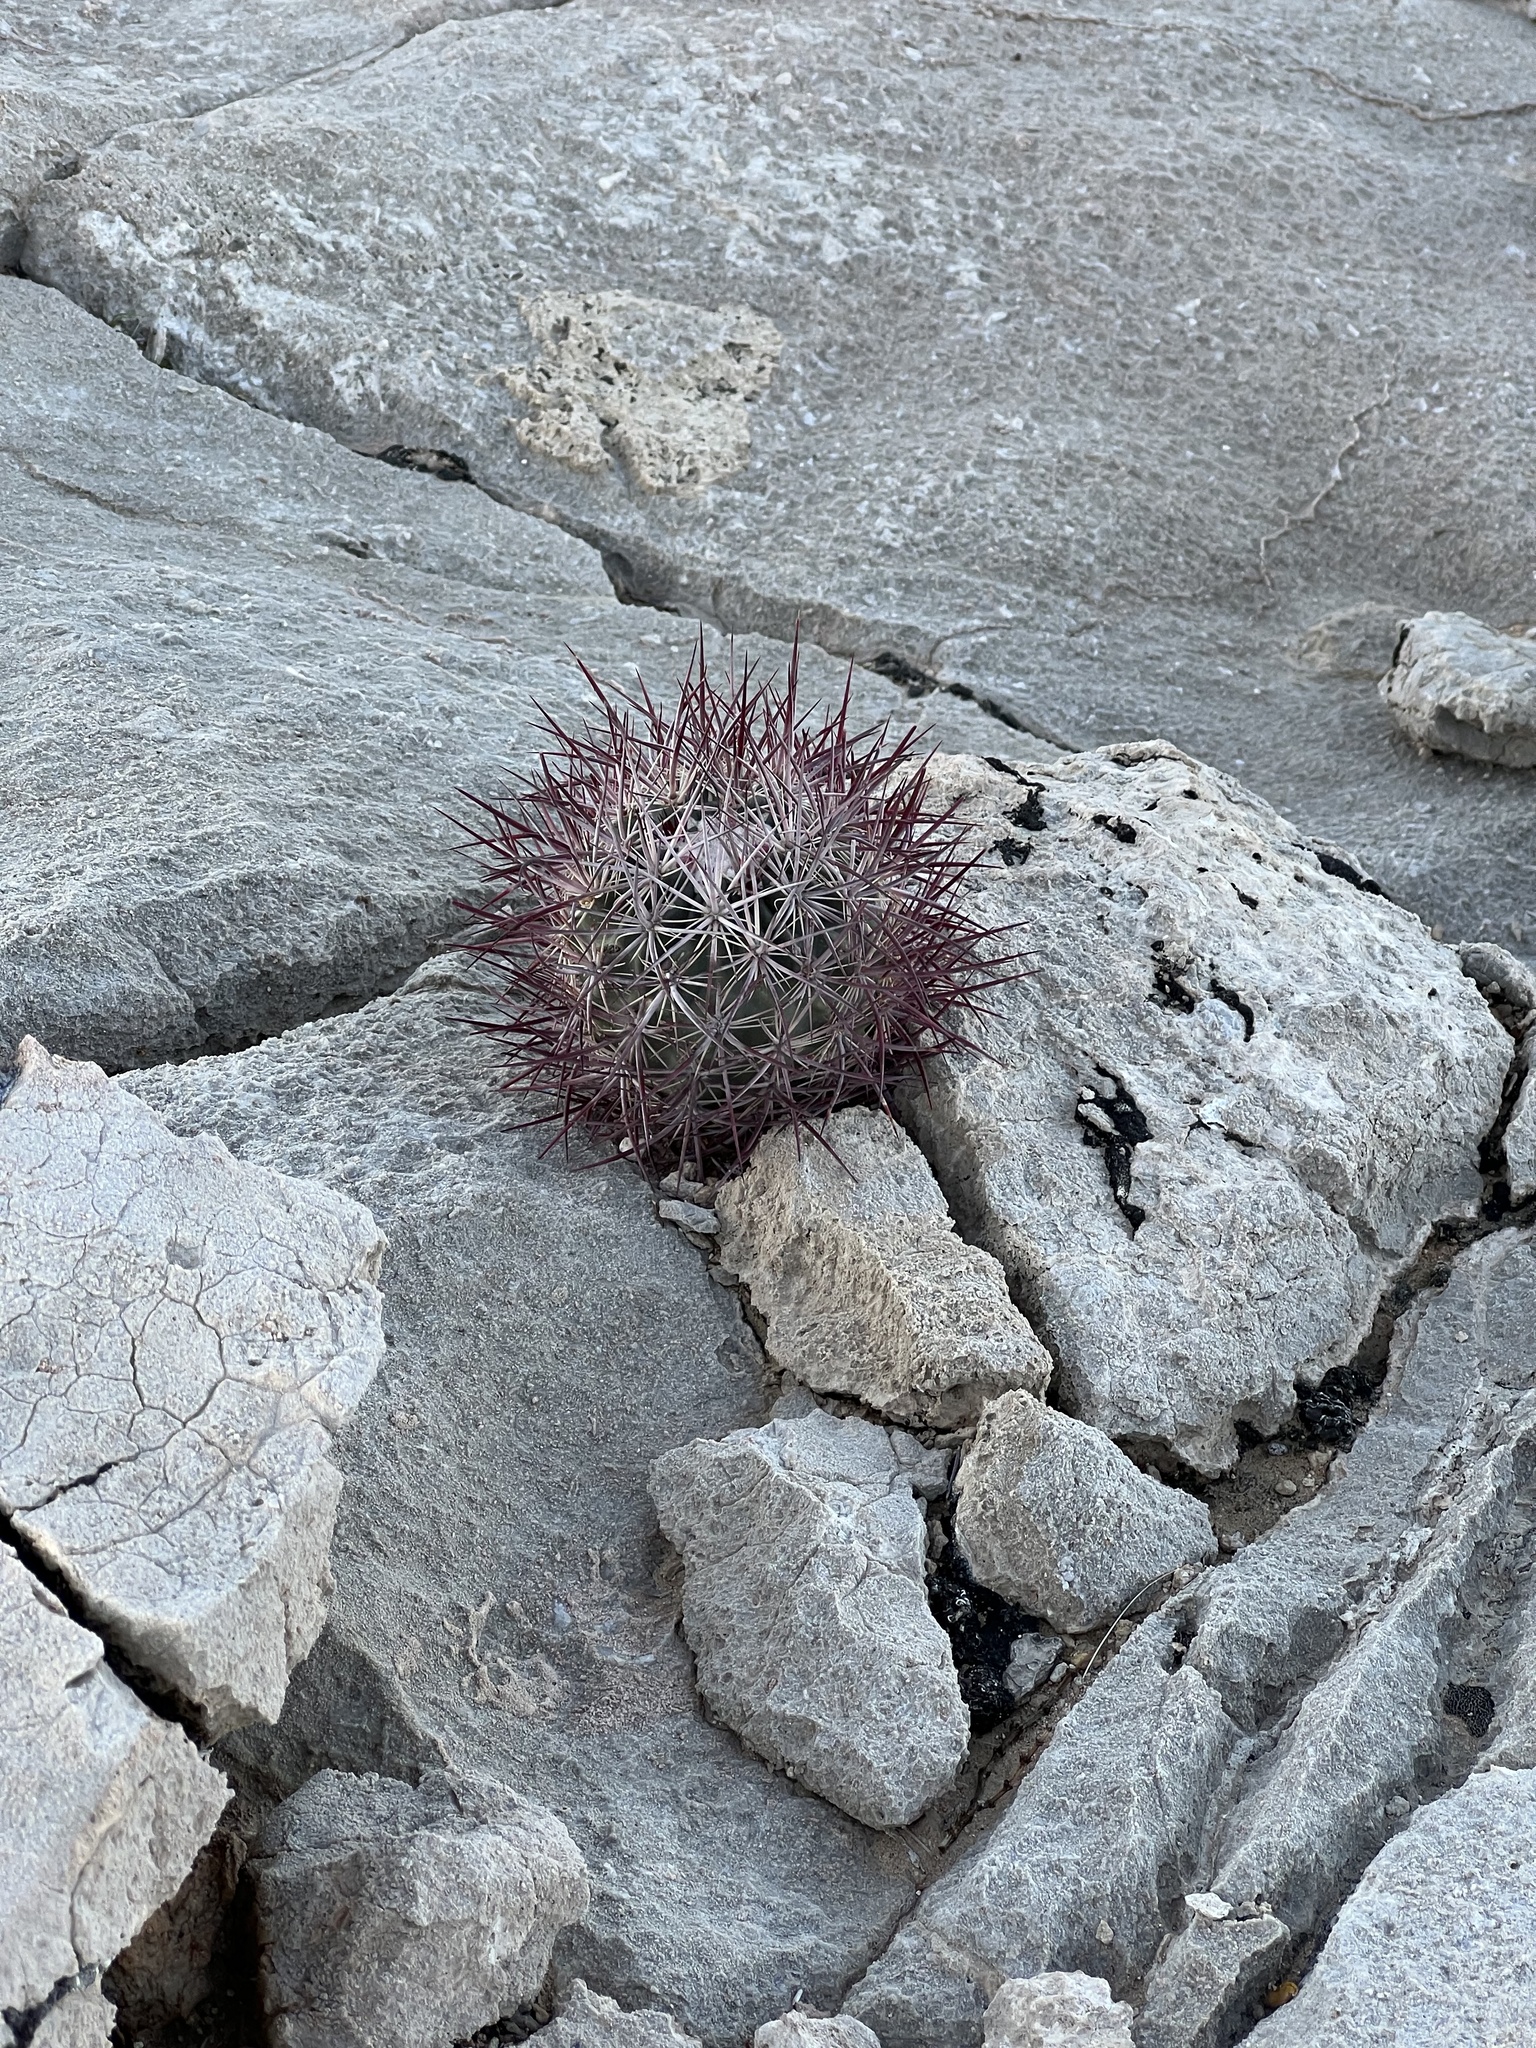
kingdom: Plantae
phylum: Tracheophyta
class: Magnoliopsida
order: Caryophyllales
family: Cactaceae
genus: Sclerocactus
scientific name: Sclerocactus johnsonii
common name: Eight-spine fishhook cactus
